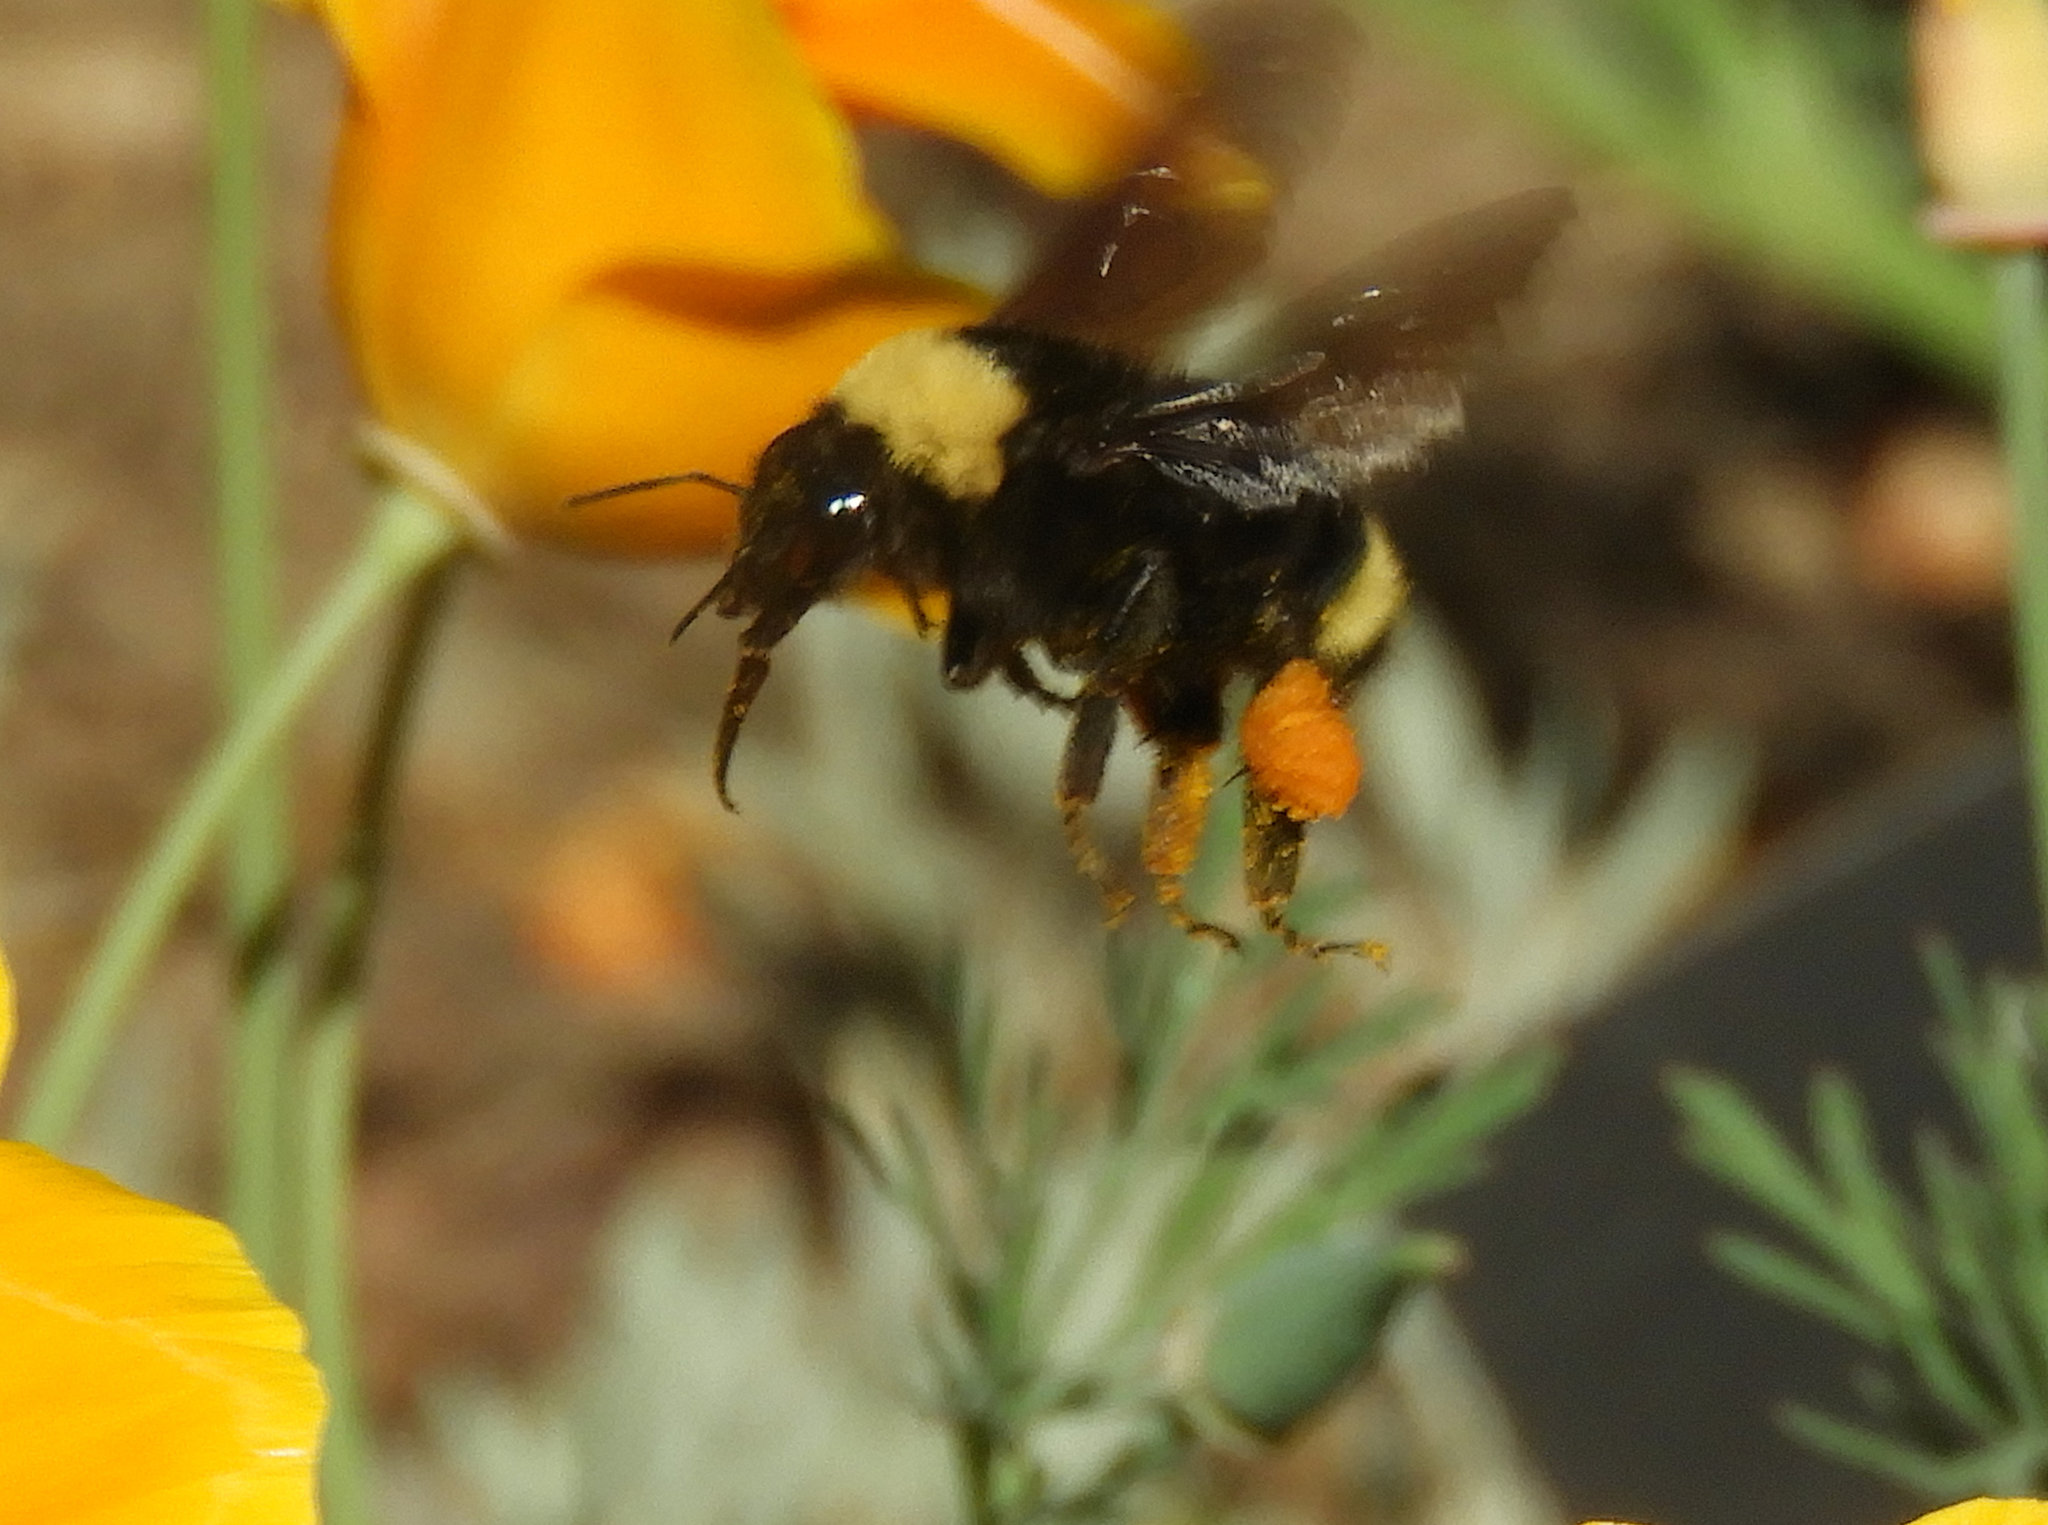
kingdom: Animalia
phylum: Arthropoda
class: Insecta
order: Hymenoptera
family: Apidae
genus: Bombus
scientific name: Bombus californicus
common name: California bumble bee
